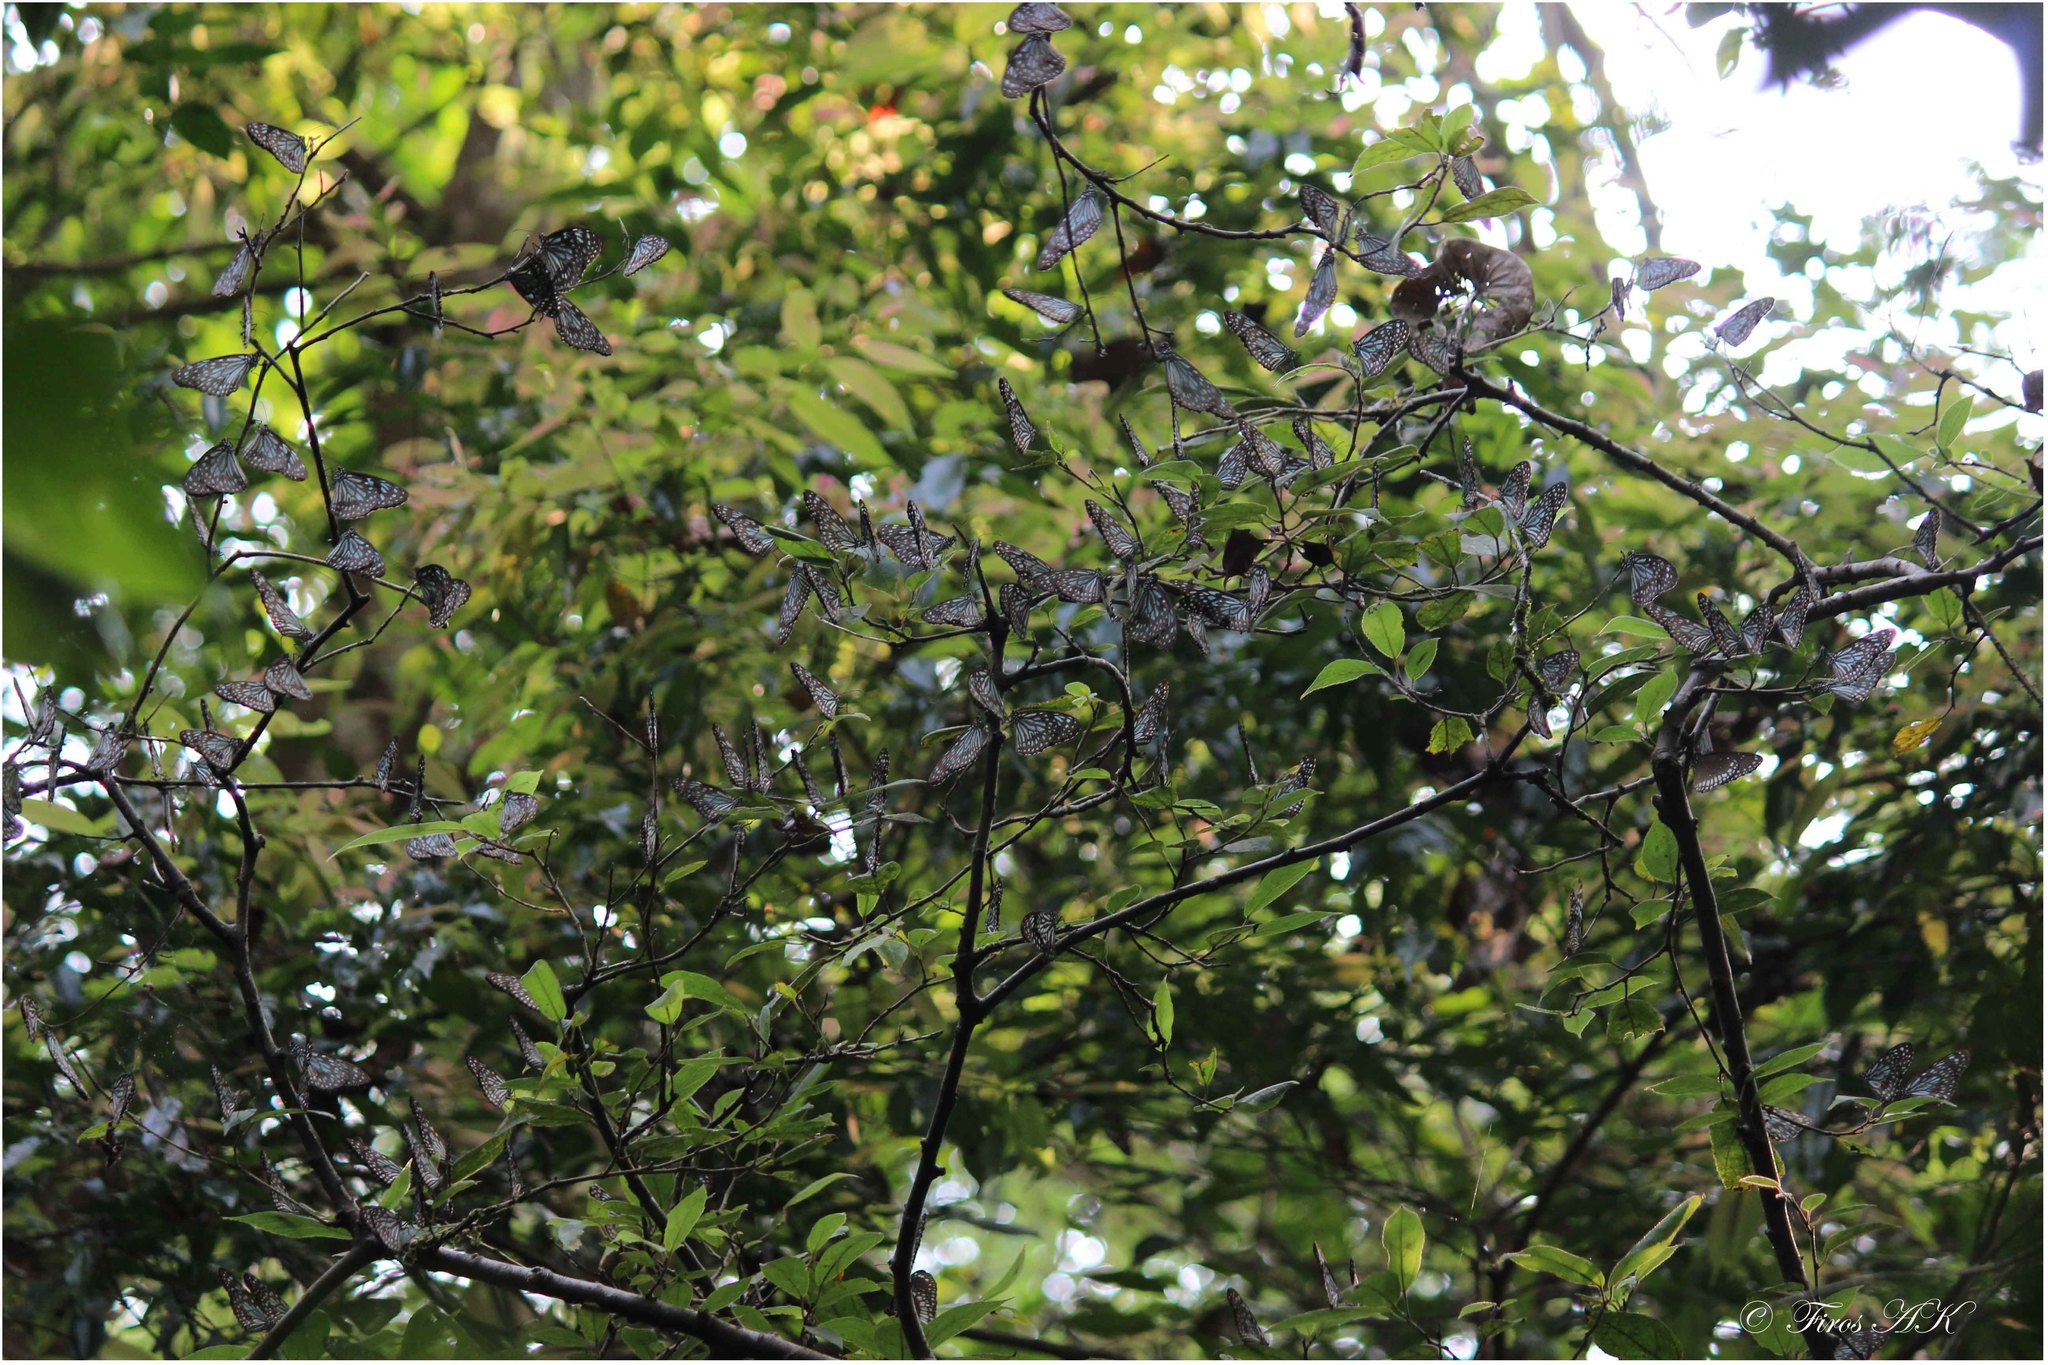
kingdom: Animalia
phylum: Arthropoda
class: Insecta
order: Lepidoptera
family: Nymphalidae
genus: Tirumala
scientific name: Tirumala septentrionis
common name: Dark blue tiger butterfly
